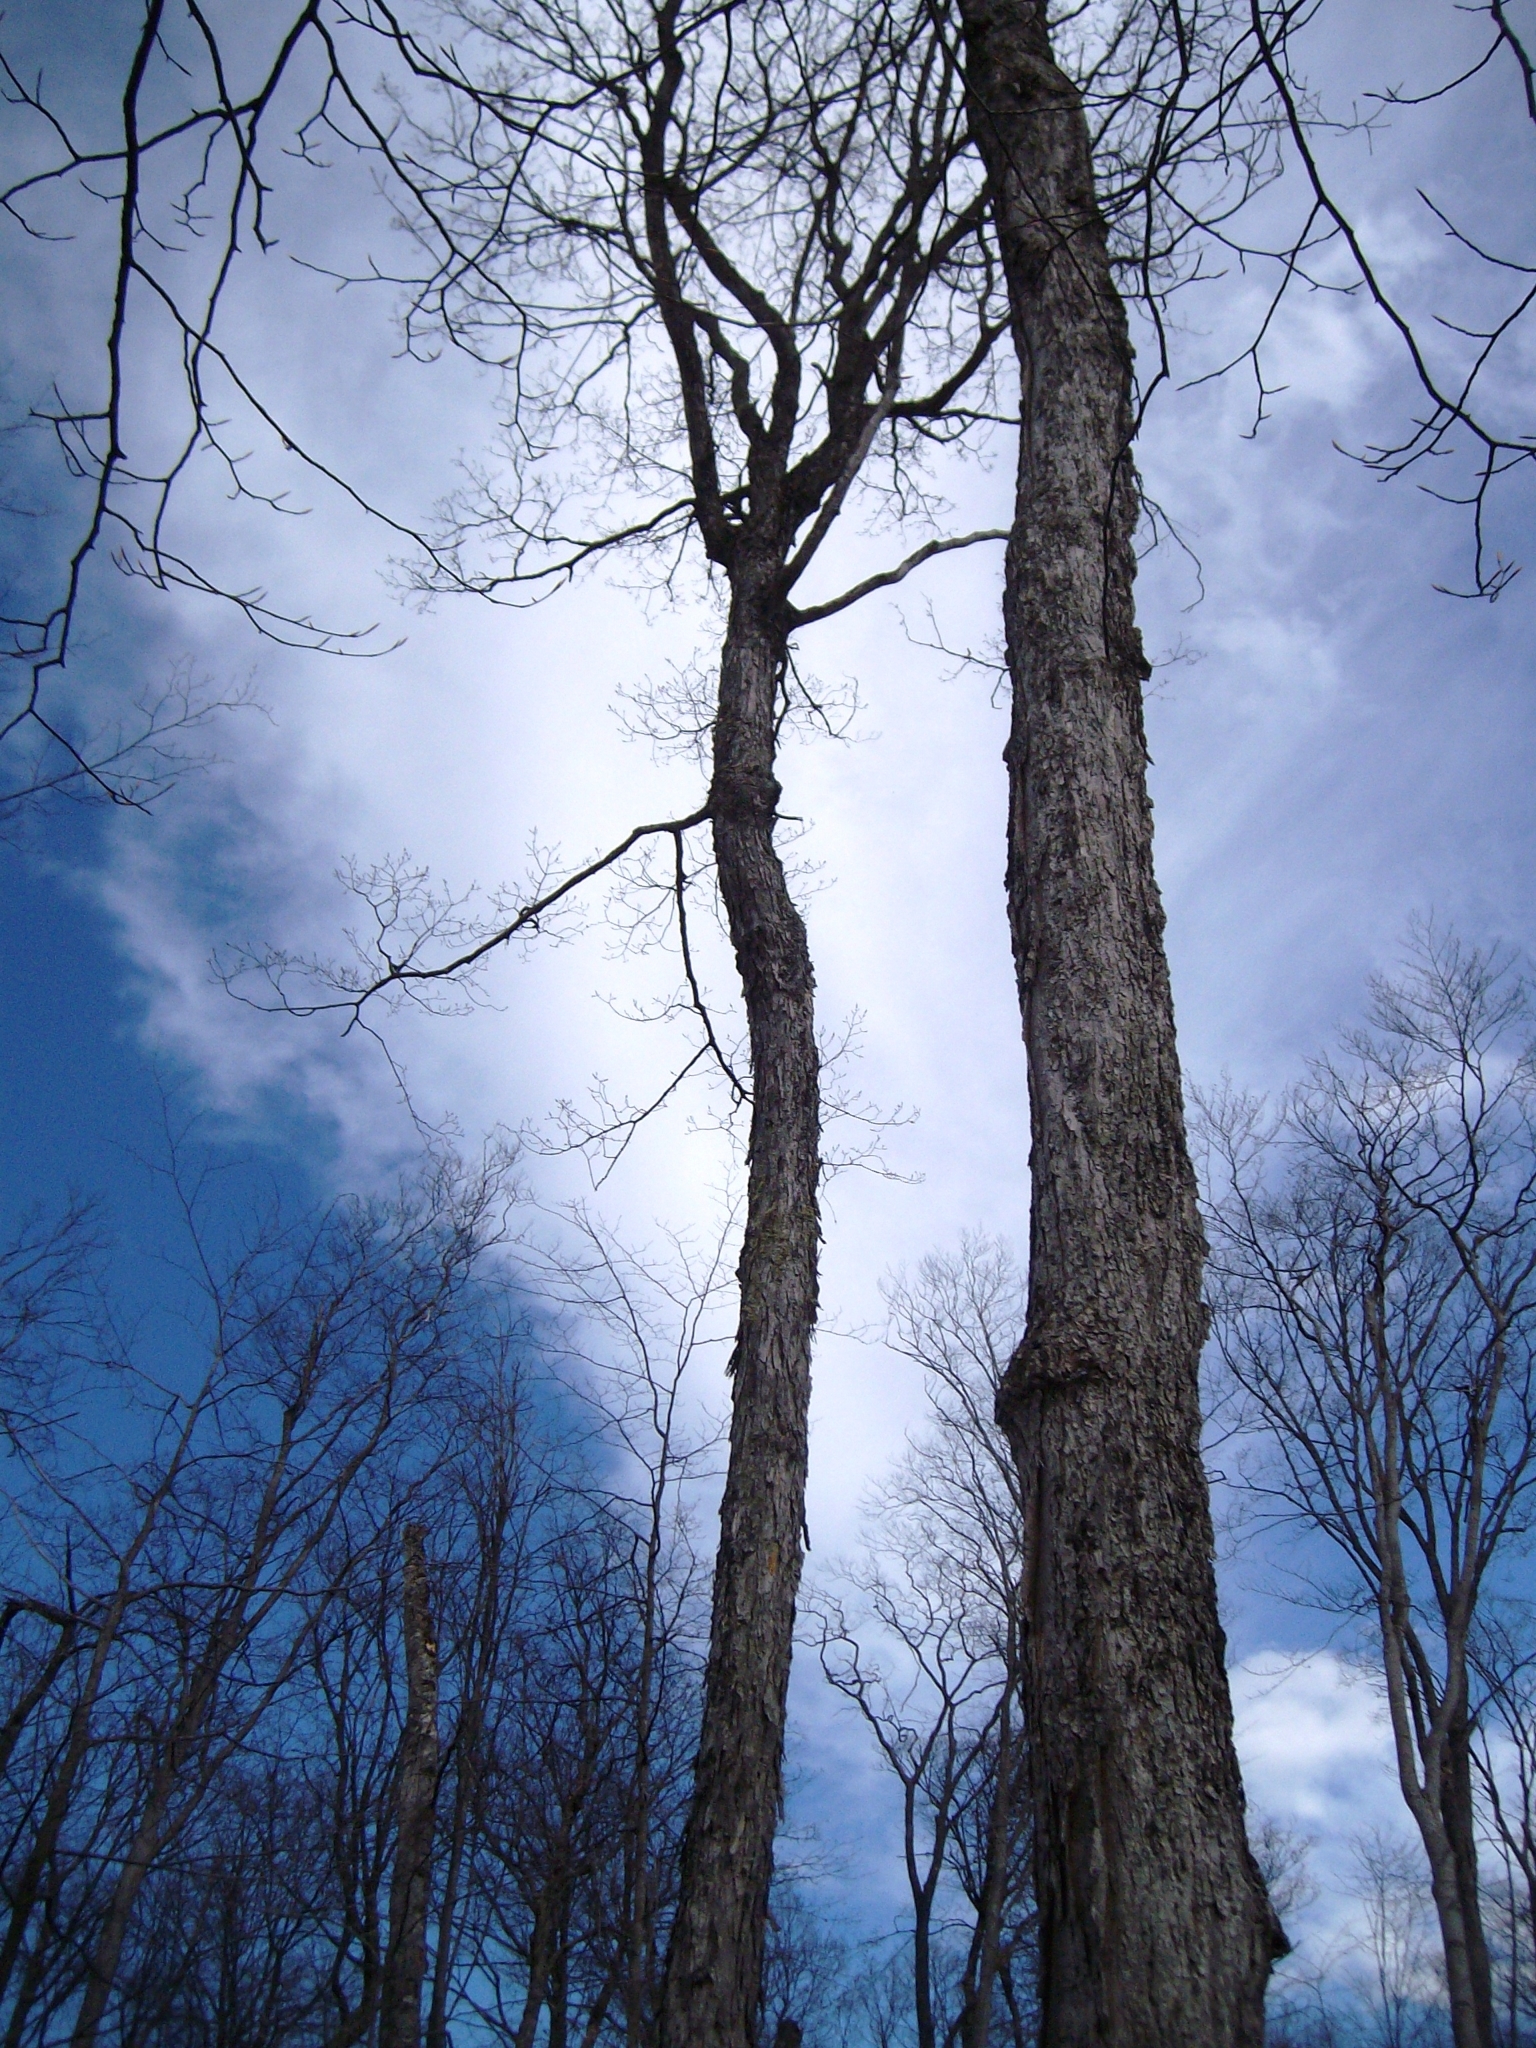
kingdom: Plantae
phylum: Tracheophyta
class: Magnoliopsida
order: Sapindales
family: Sapindaceae
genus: Acer
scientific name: Acer saccharum
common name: Sugar maple
